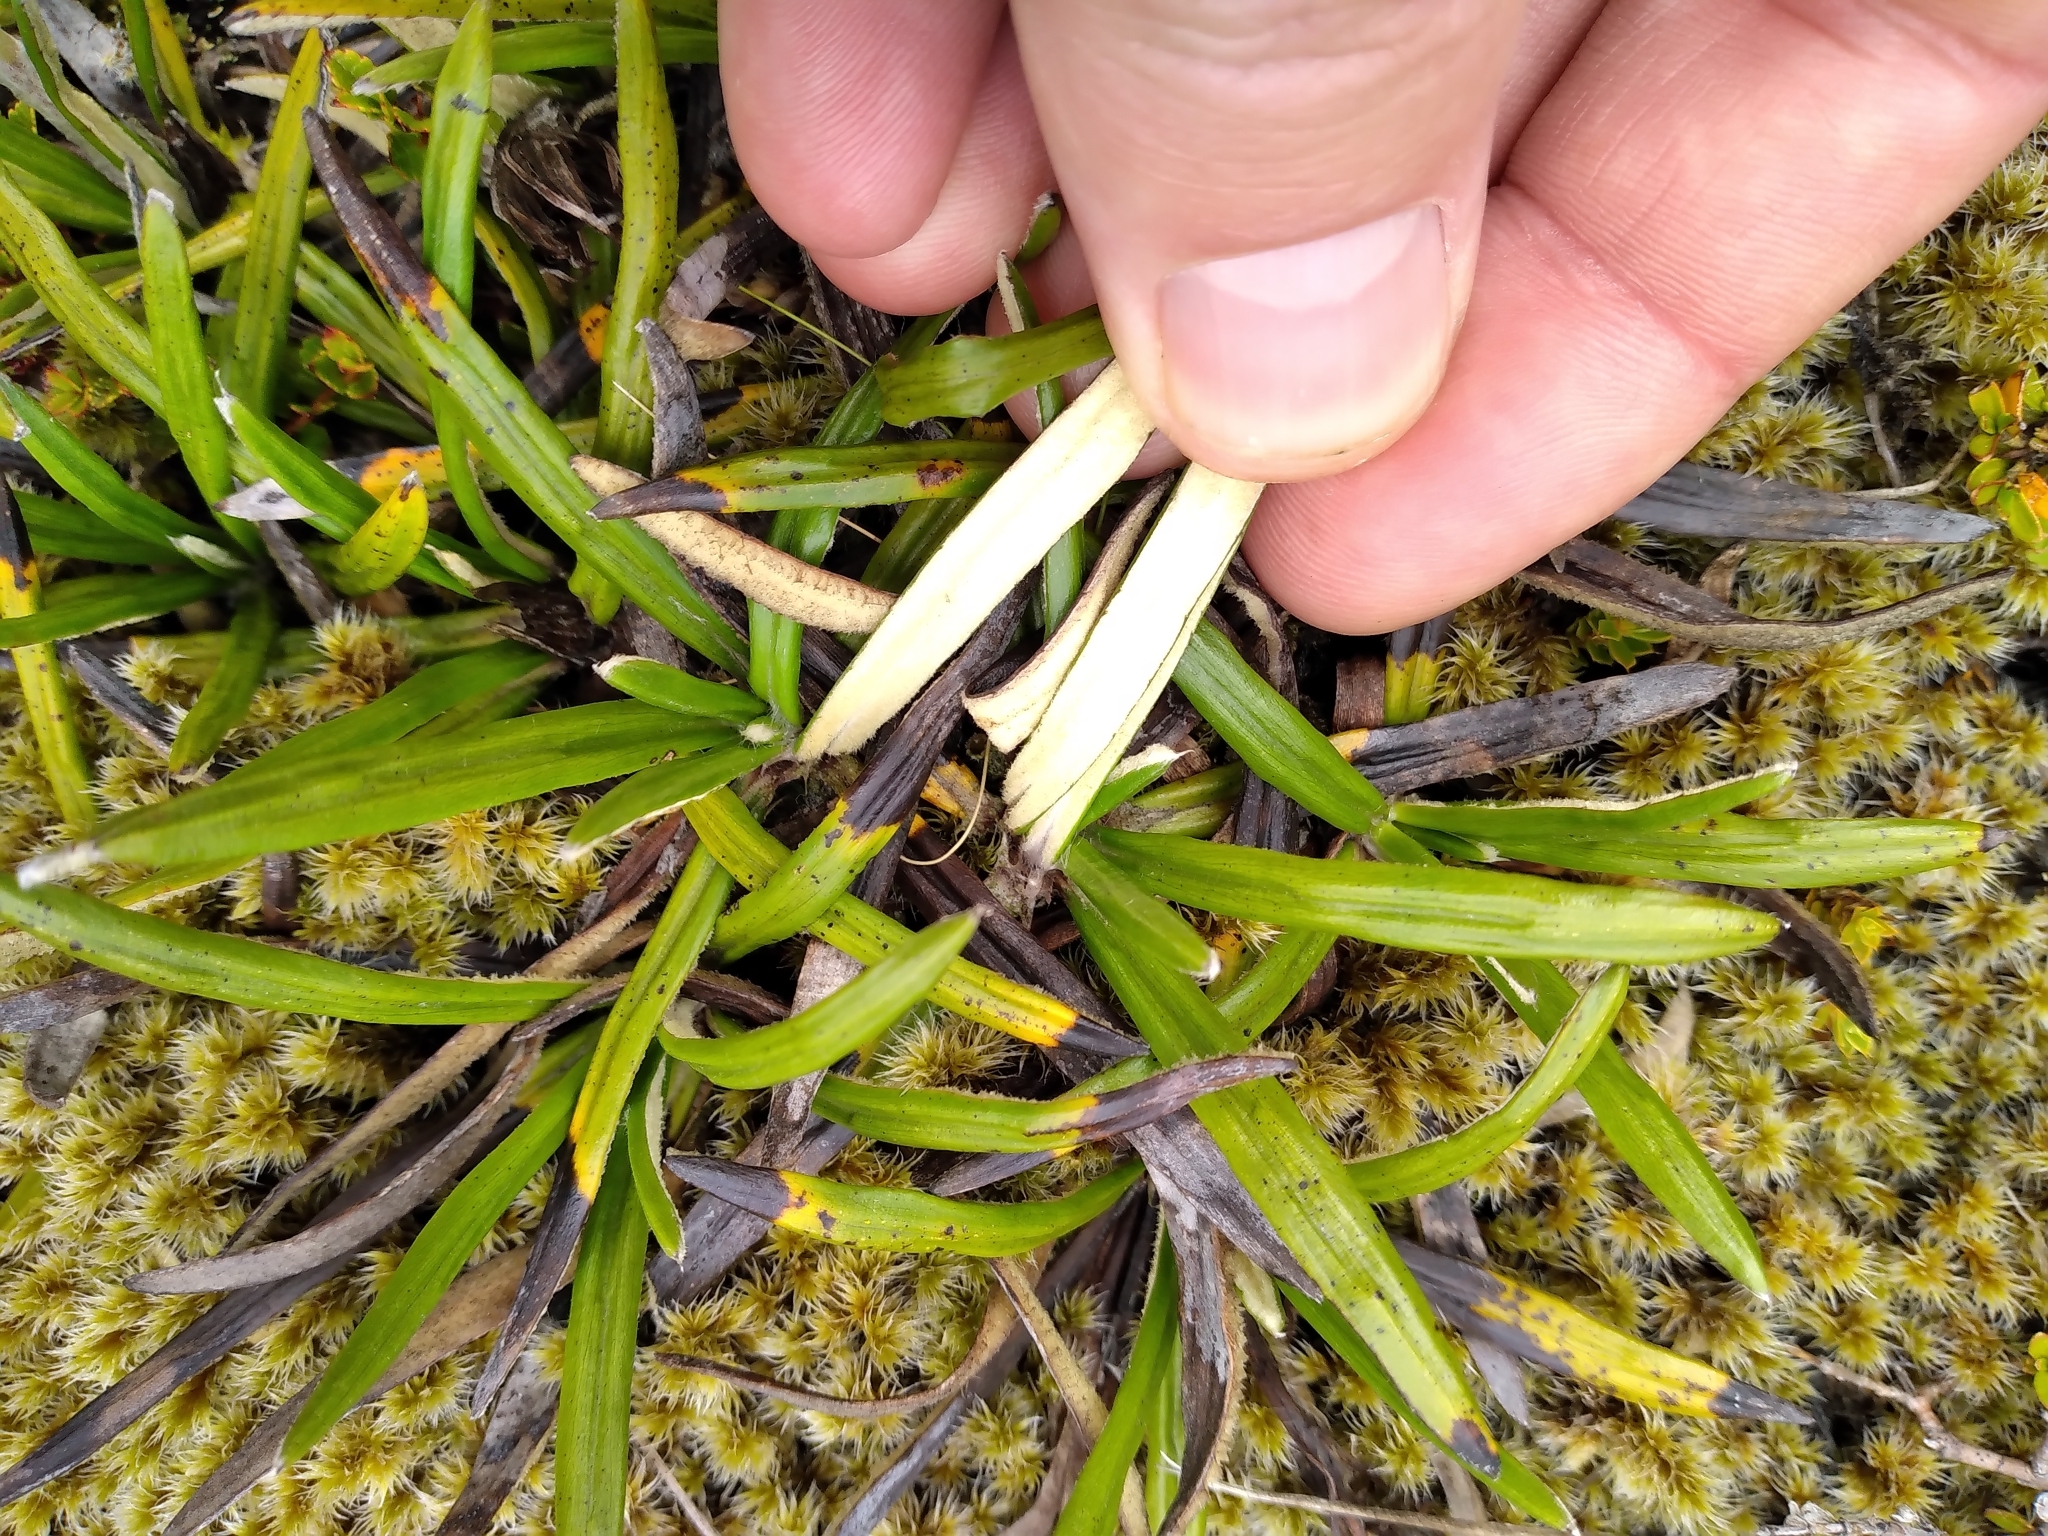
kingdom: Plantae
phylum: Tracheophyta
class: Magnoliopsida
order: Asterales
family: Asteraceae
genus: Celmisia
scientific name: Celmisia spectabilis
